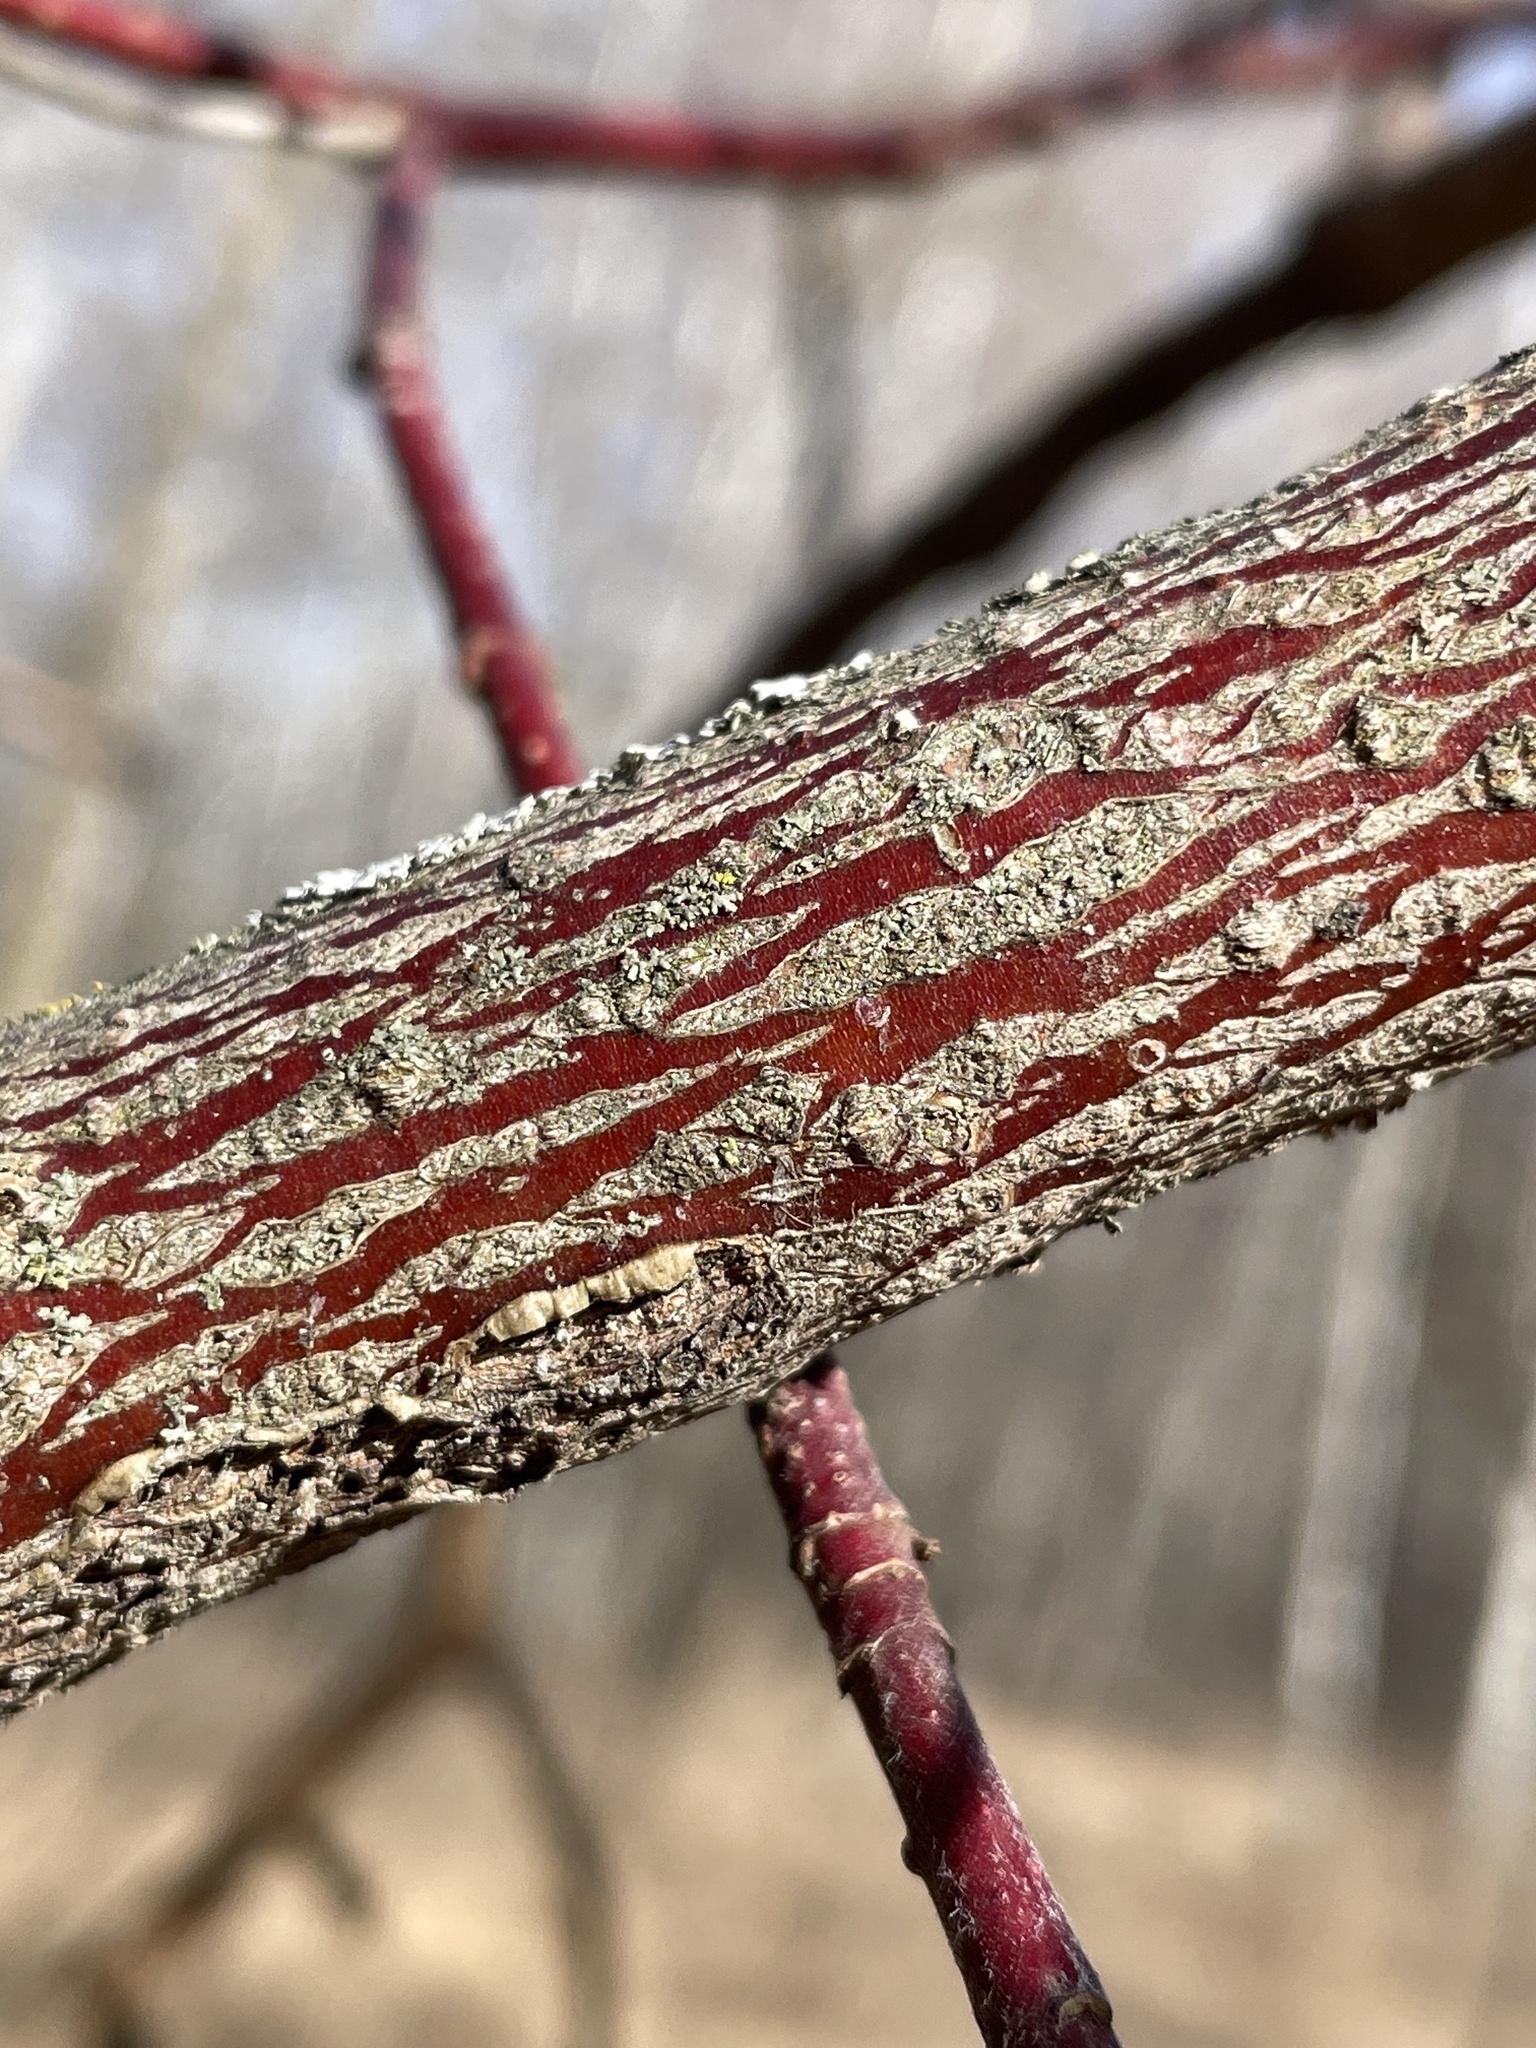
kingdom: Plantae
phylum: Tracheophyta
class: Magnoliopsida
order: Cornales
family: Cornaceae
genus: Cornus
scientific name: Cornus amomum
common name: Silky dogwood
